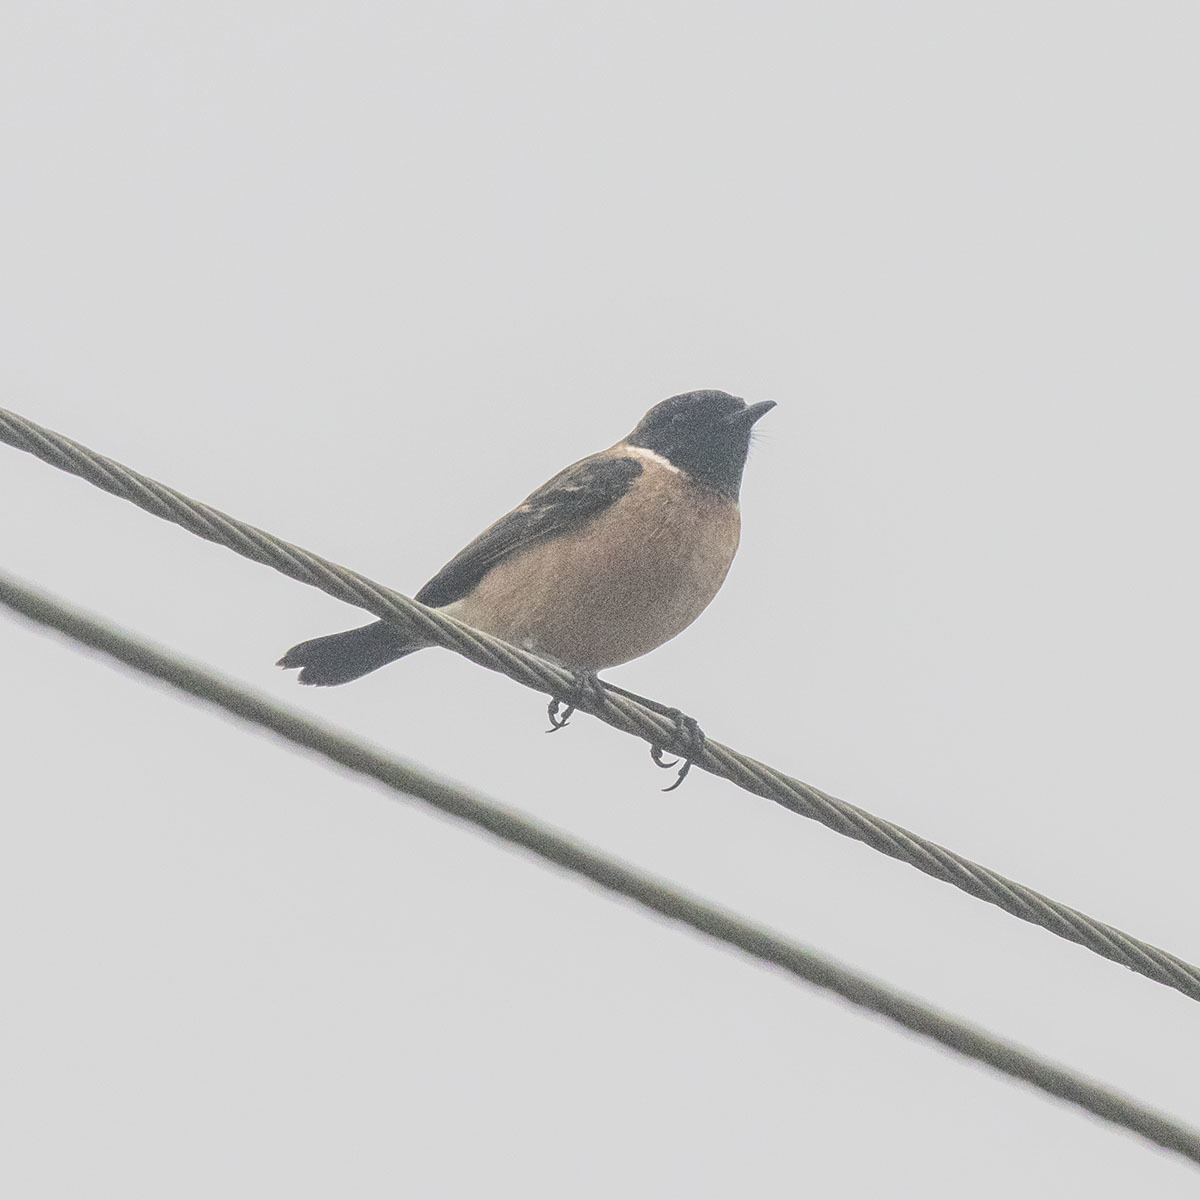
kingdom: Animalia
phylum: Chordata
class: Aves
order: Passeriformes
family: Muscicapidae
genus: Saxicola
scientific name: Saxicola maurus
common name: Siberian stonechat
